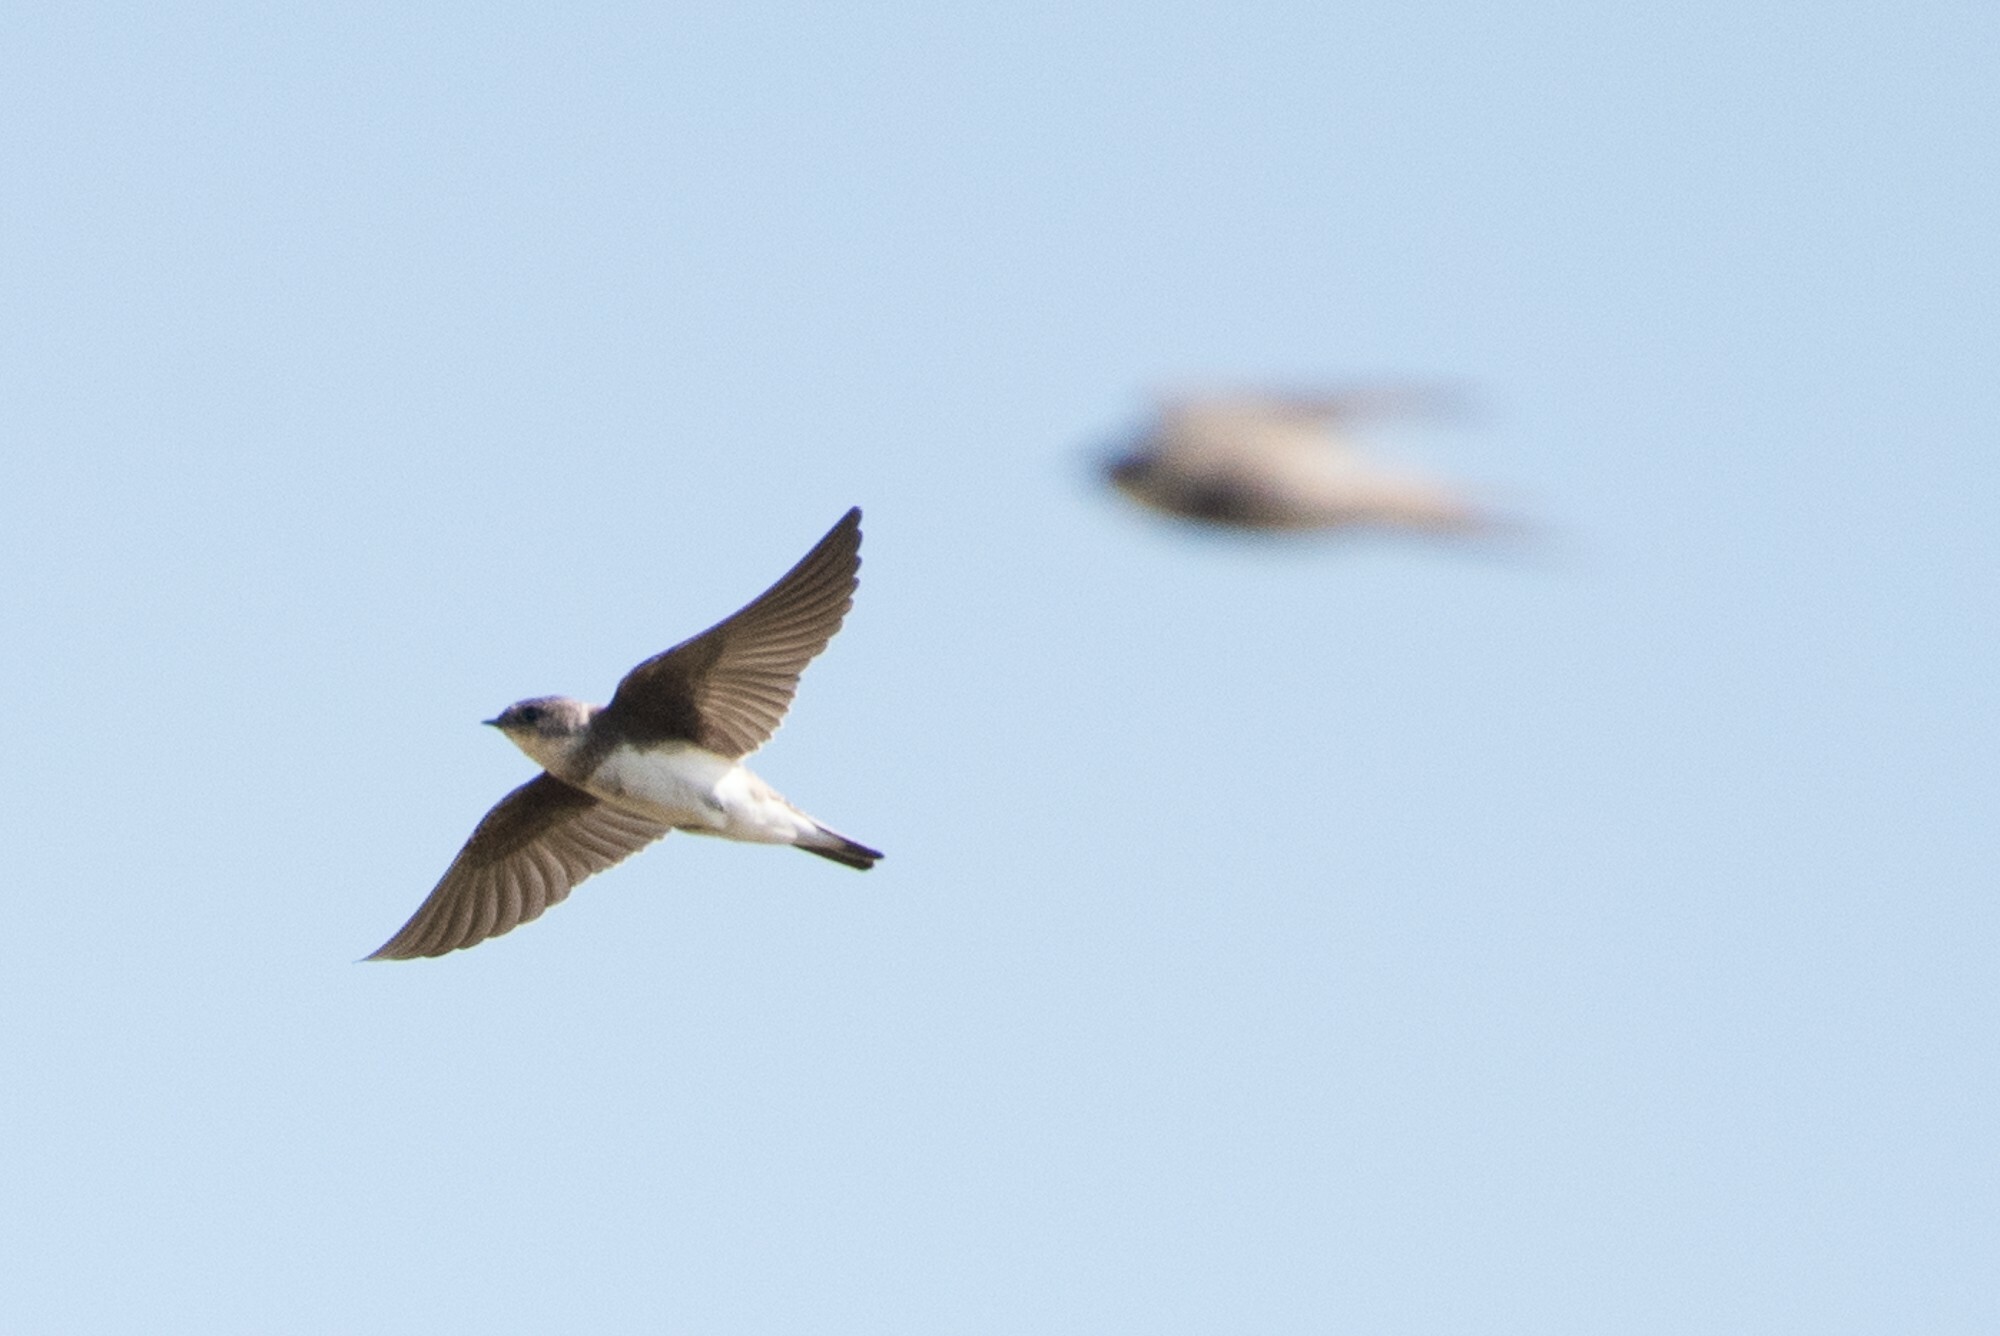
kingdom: Animalia
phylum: Chordata
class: Aves
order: Passeriformes
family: Hirundinidae
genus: Riparia
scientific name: Riparia riparia
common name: Sand martin
